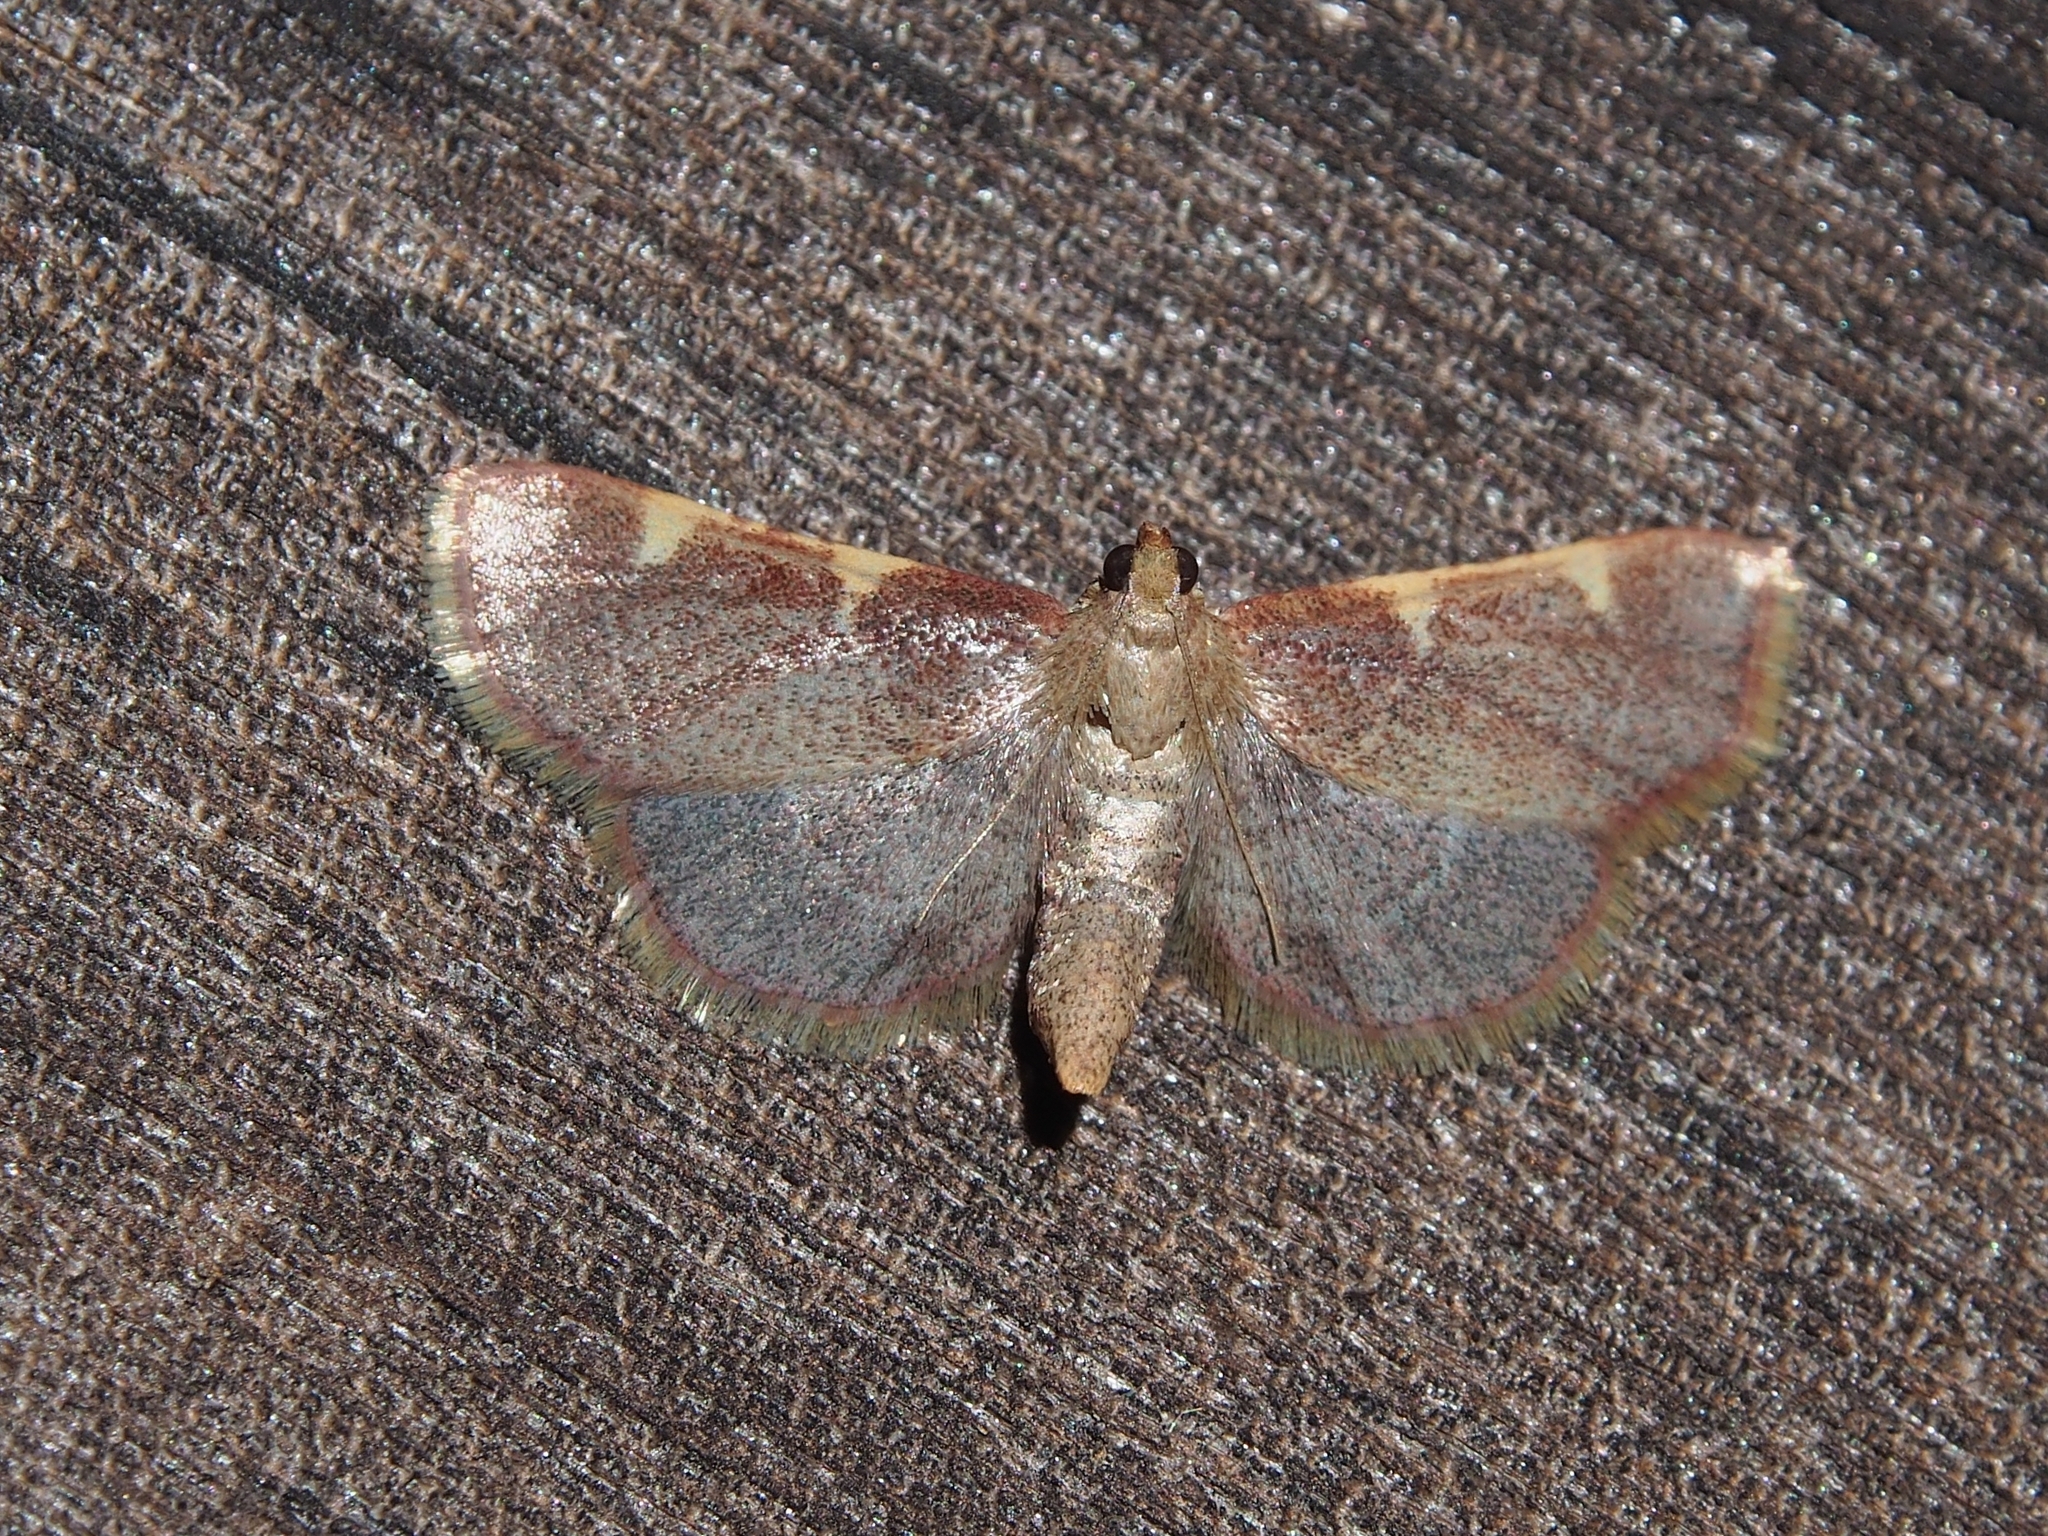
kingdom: Animalia
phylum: Arthropoda
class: Insecta
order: Lepidoptera
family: Pyralidae
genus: Hypsopygia
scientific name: Hypsopygia costalis
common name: Gold triangle
